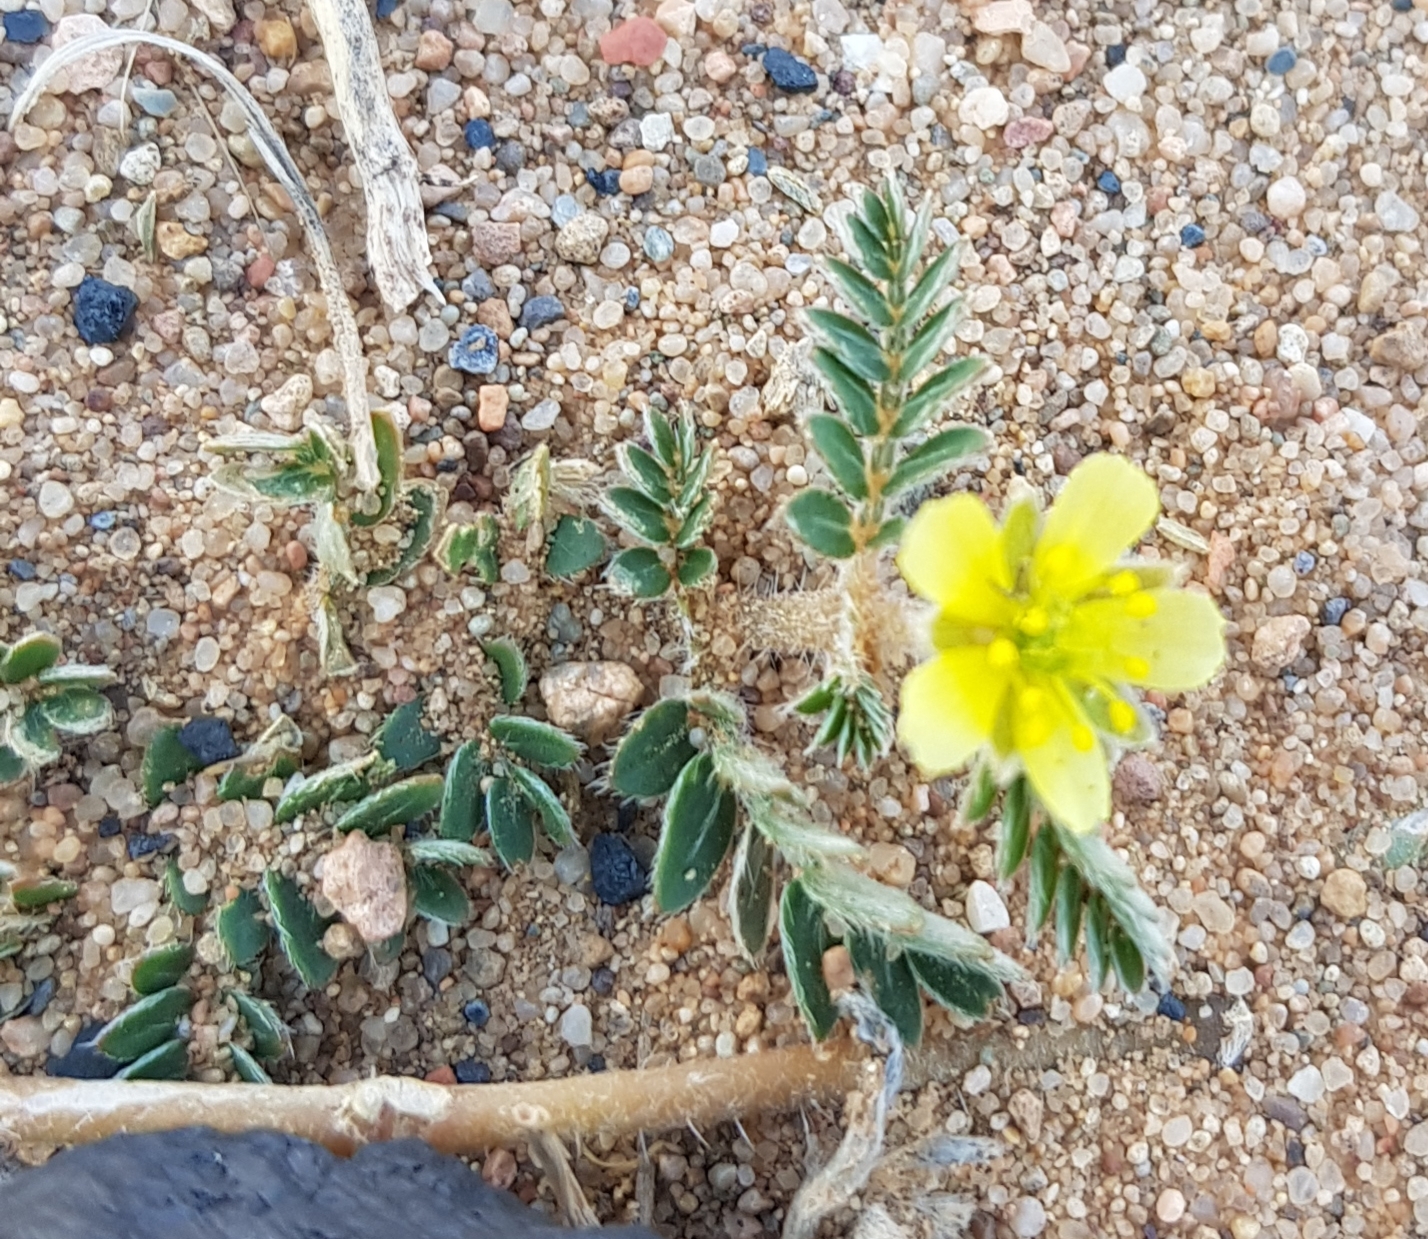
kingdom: Plantae
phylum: Tracheophyta
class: Magnoliopsida
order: Zygophyllales
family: Zygophyllaceae
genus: Tribulus
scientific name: Tribulus terrestris
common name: Puncturevine
